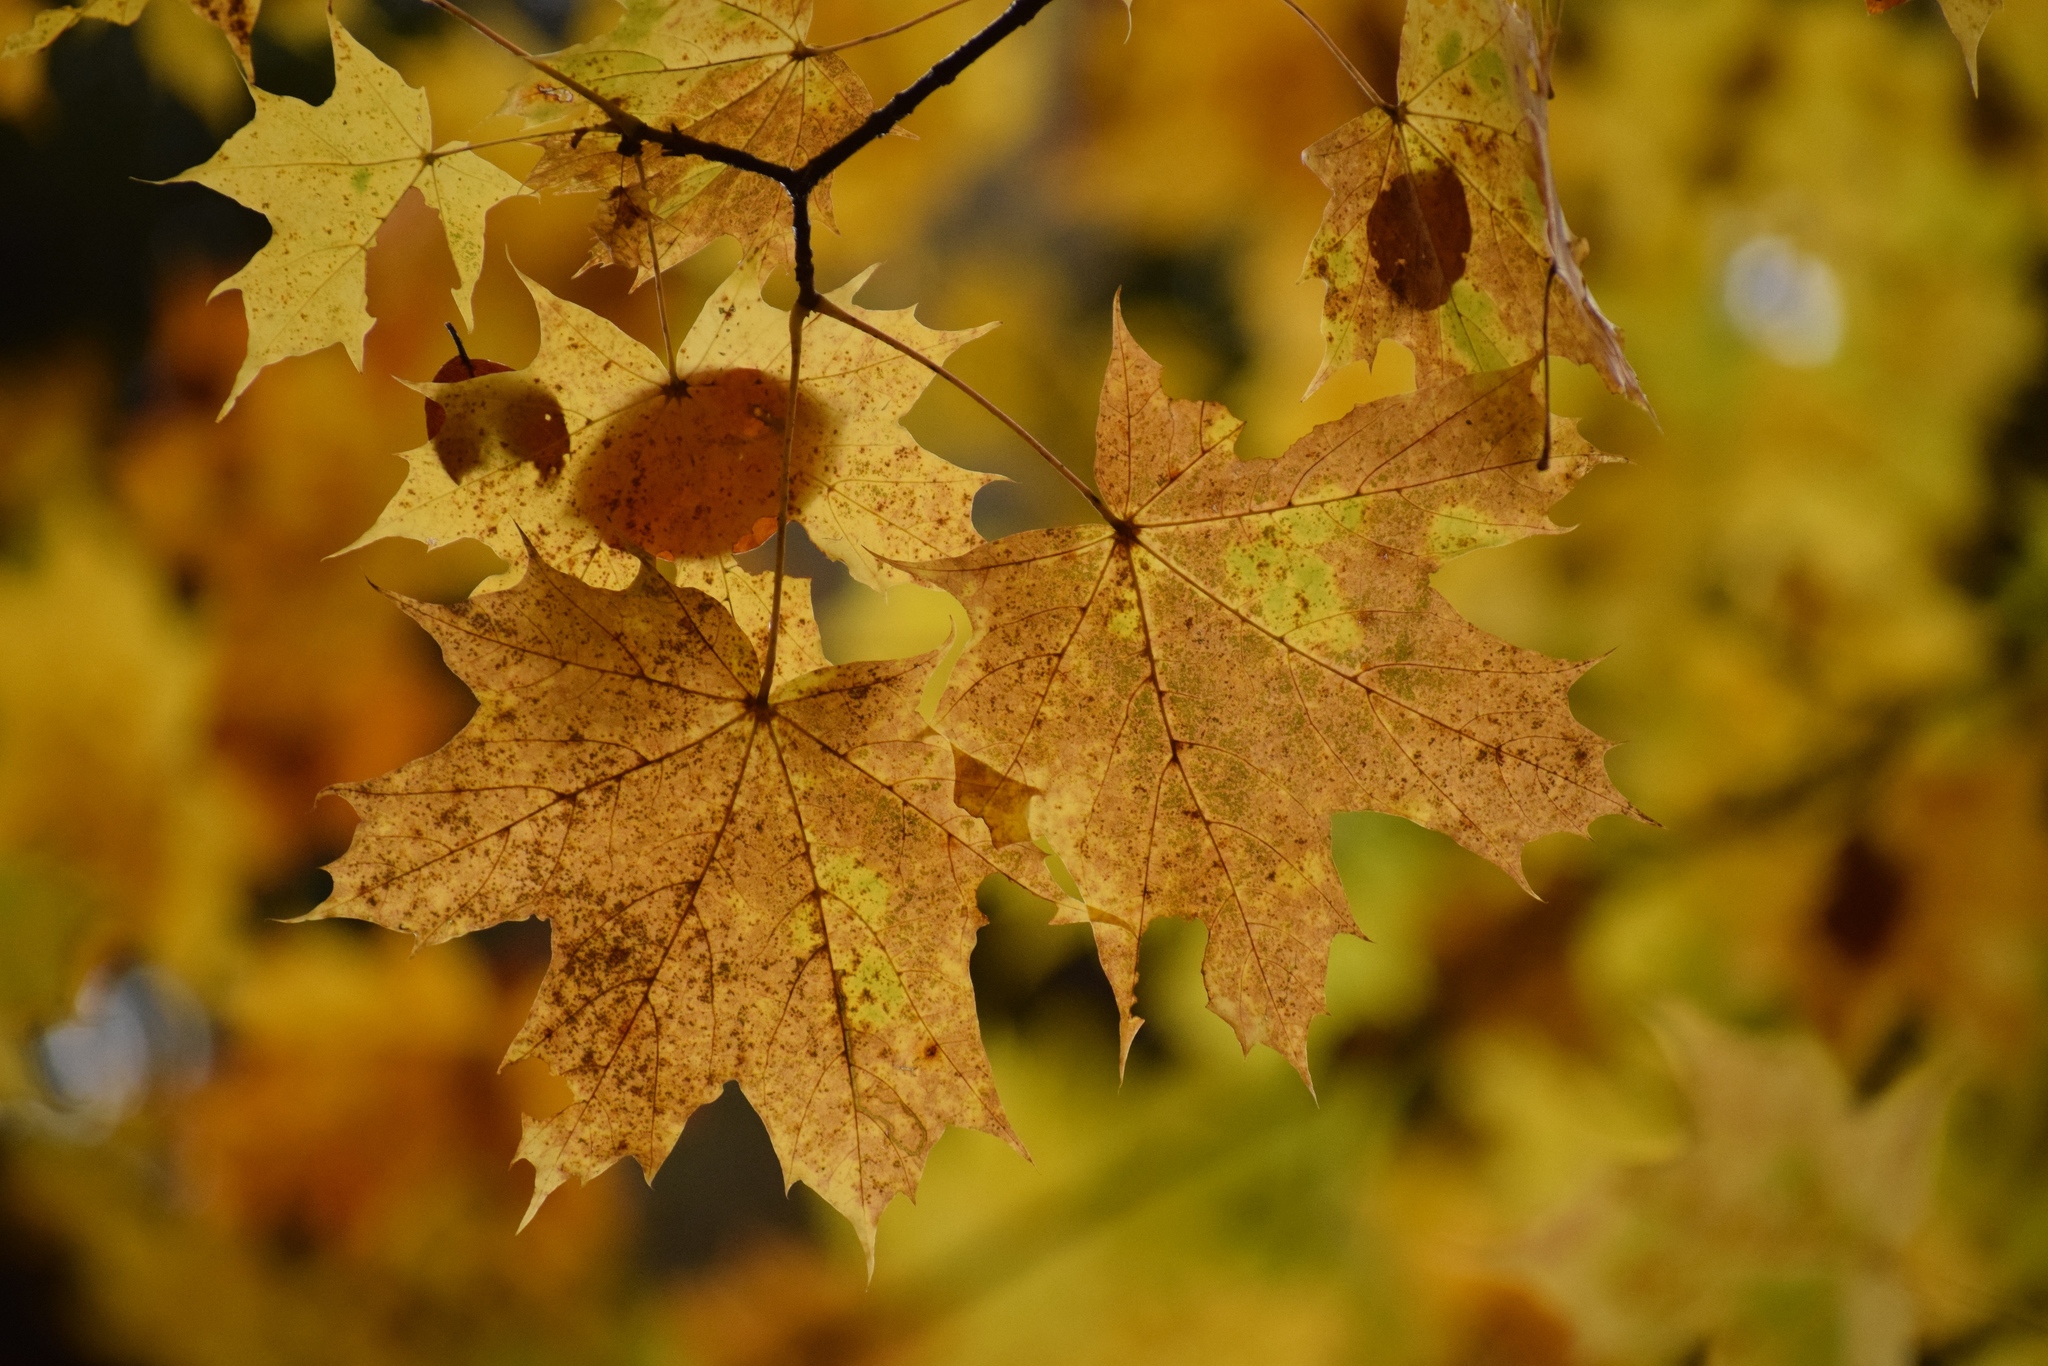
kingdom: Plantae
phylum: Tracheophyta
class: Magnoliopsida
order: Sapindales
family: Sapindaceae
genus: Acer
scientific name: Acer platanoides
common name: Norway maple
